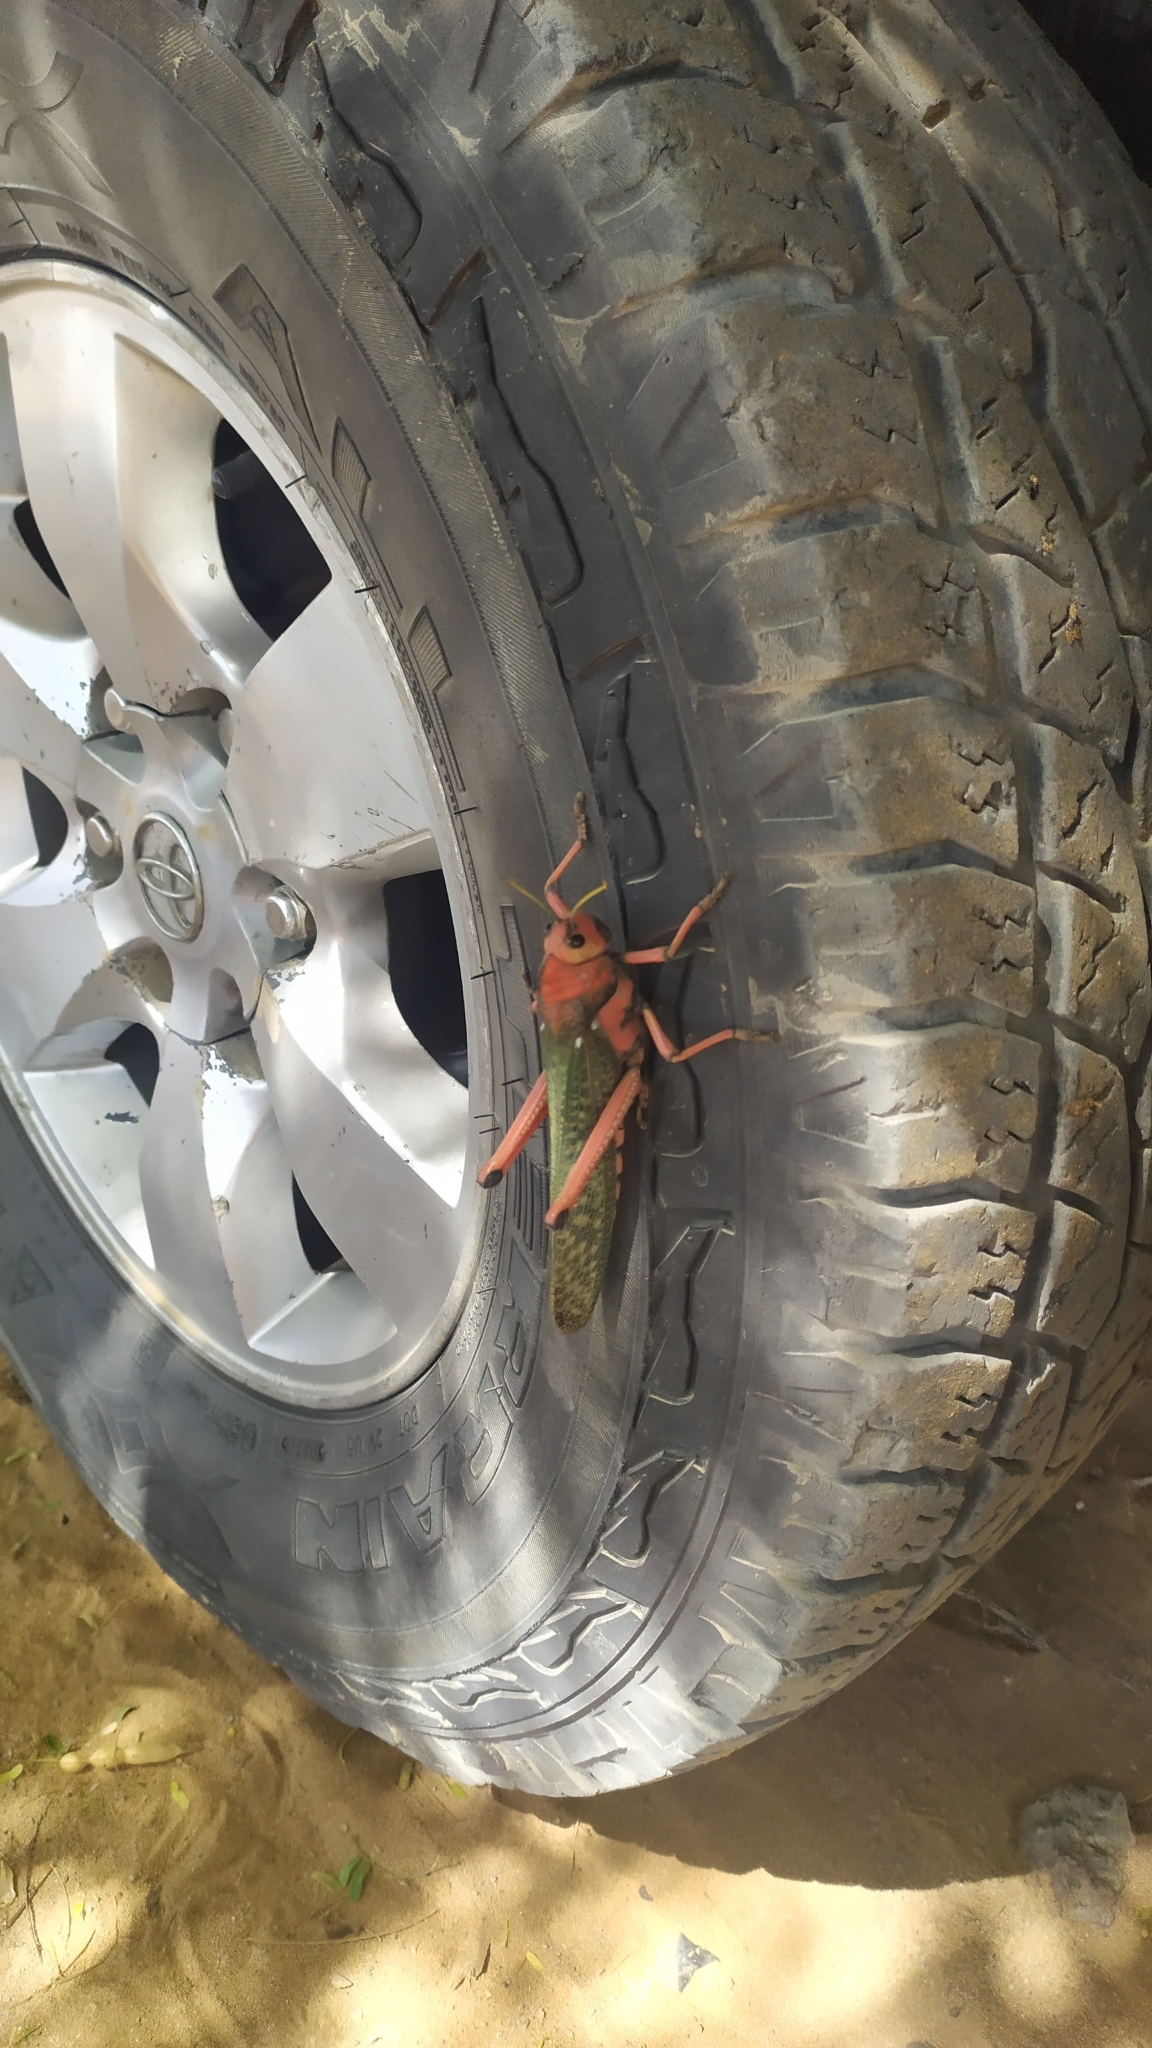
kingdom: Animalia
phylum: Arthropoda
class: Insecta
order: Orthoptera
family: Romaleidae
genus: Tropidacris
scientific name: Tropidacris collaris
